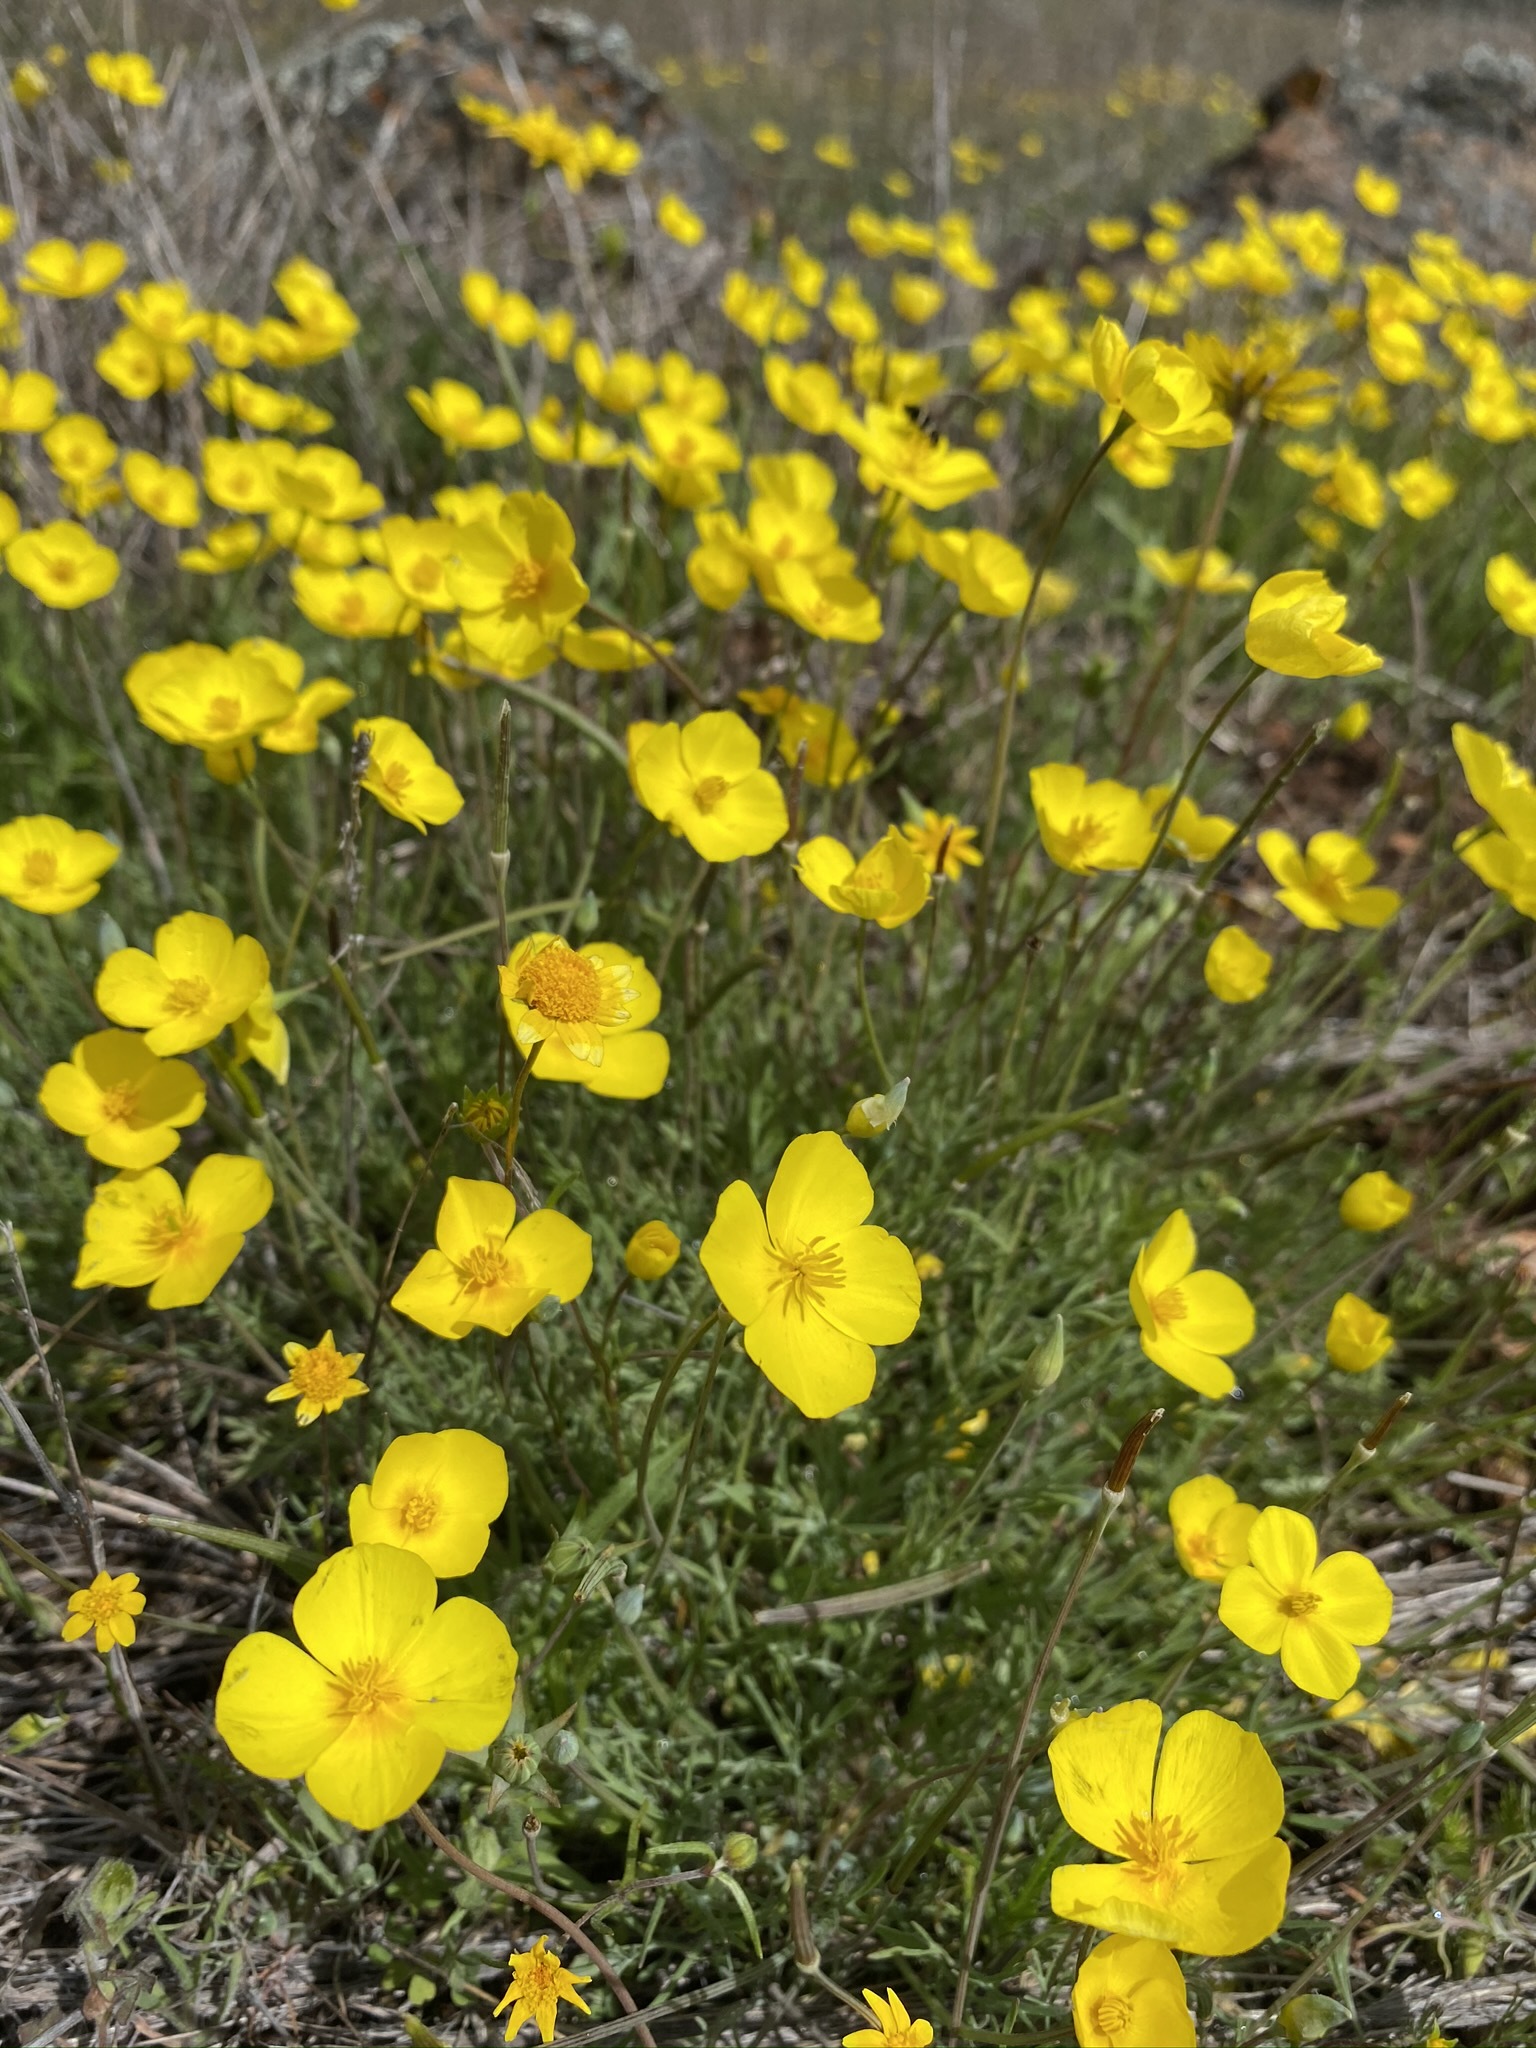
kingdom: Plantae
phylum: Tracheophyta
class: Magnoliopsida
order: Ranunculales
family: Papaveraceae
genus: Eschscholzia
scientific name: Eschscholzia lobbii
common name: Frying-pans
